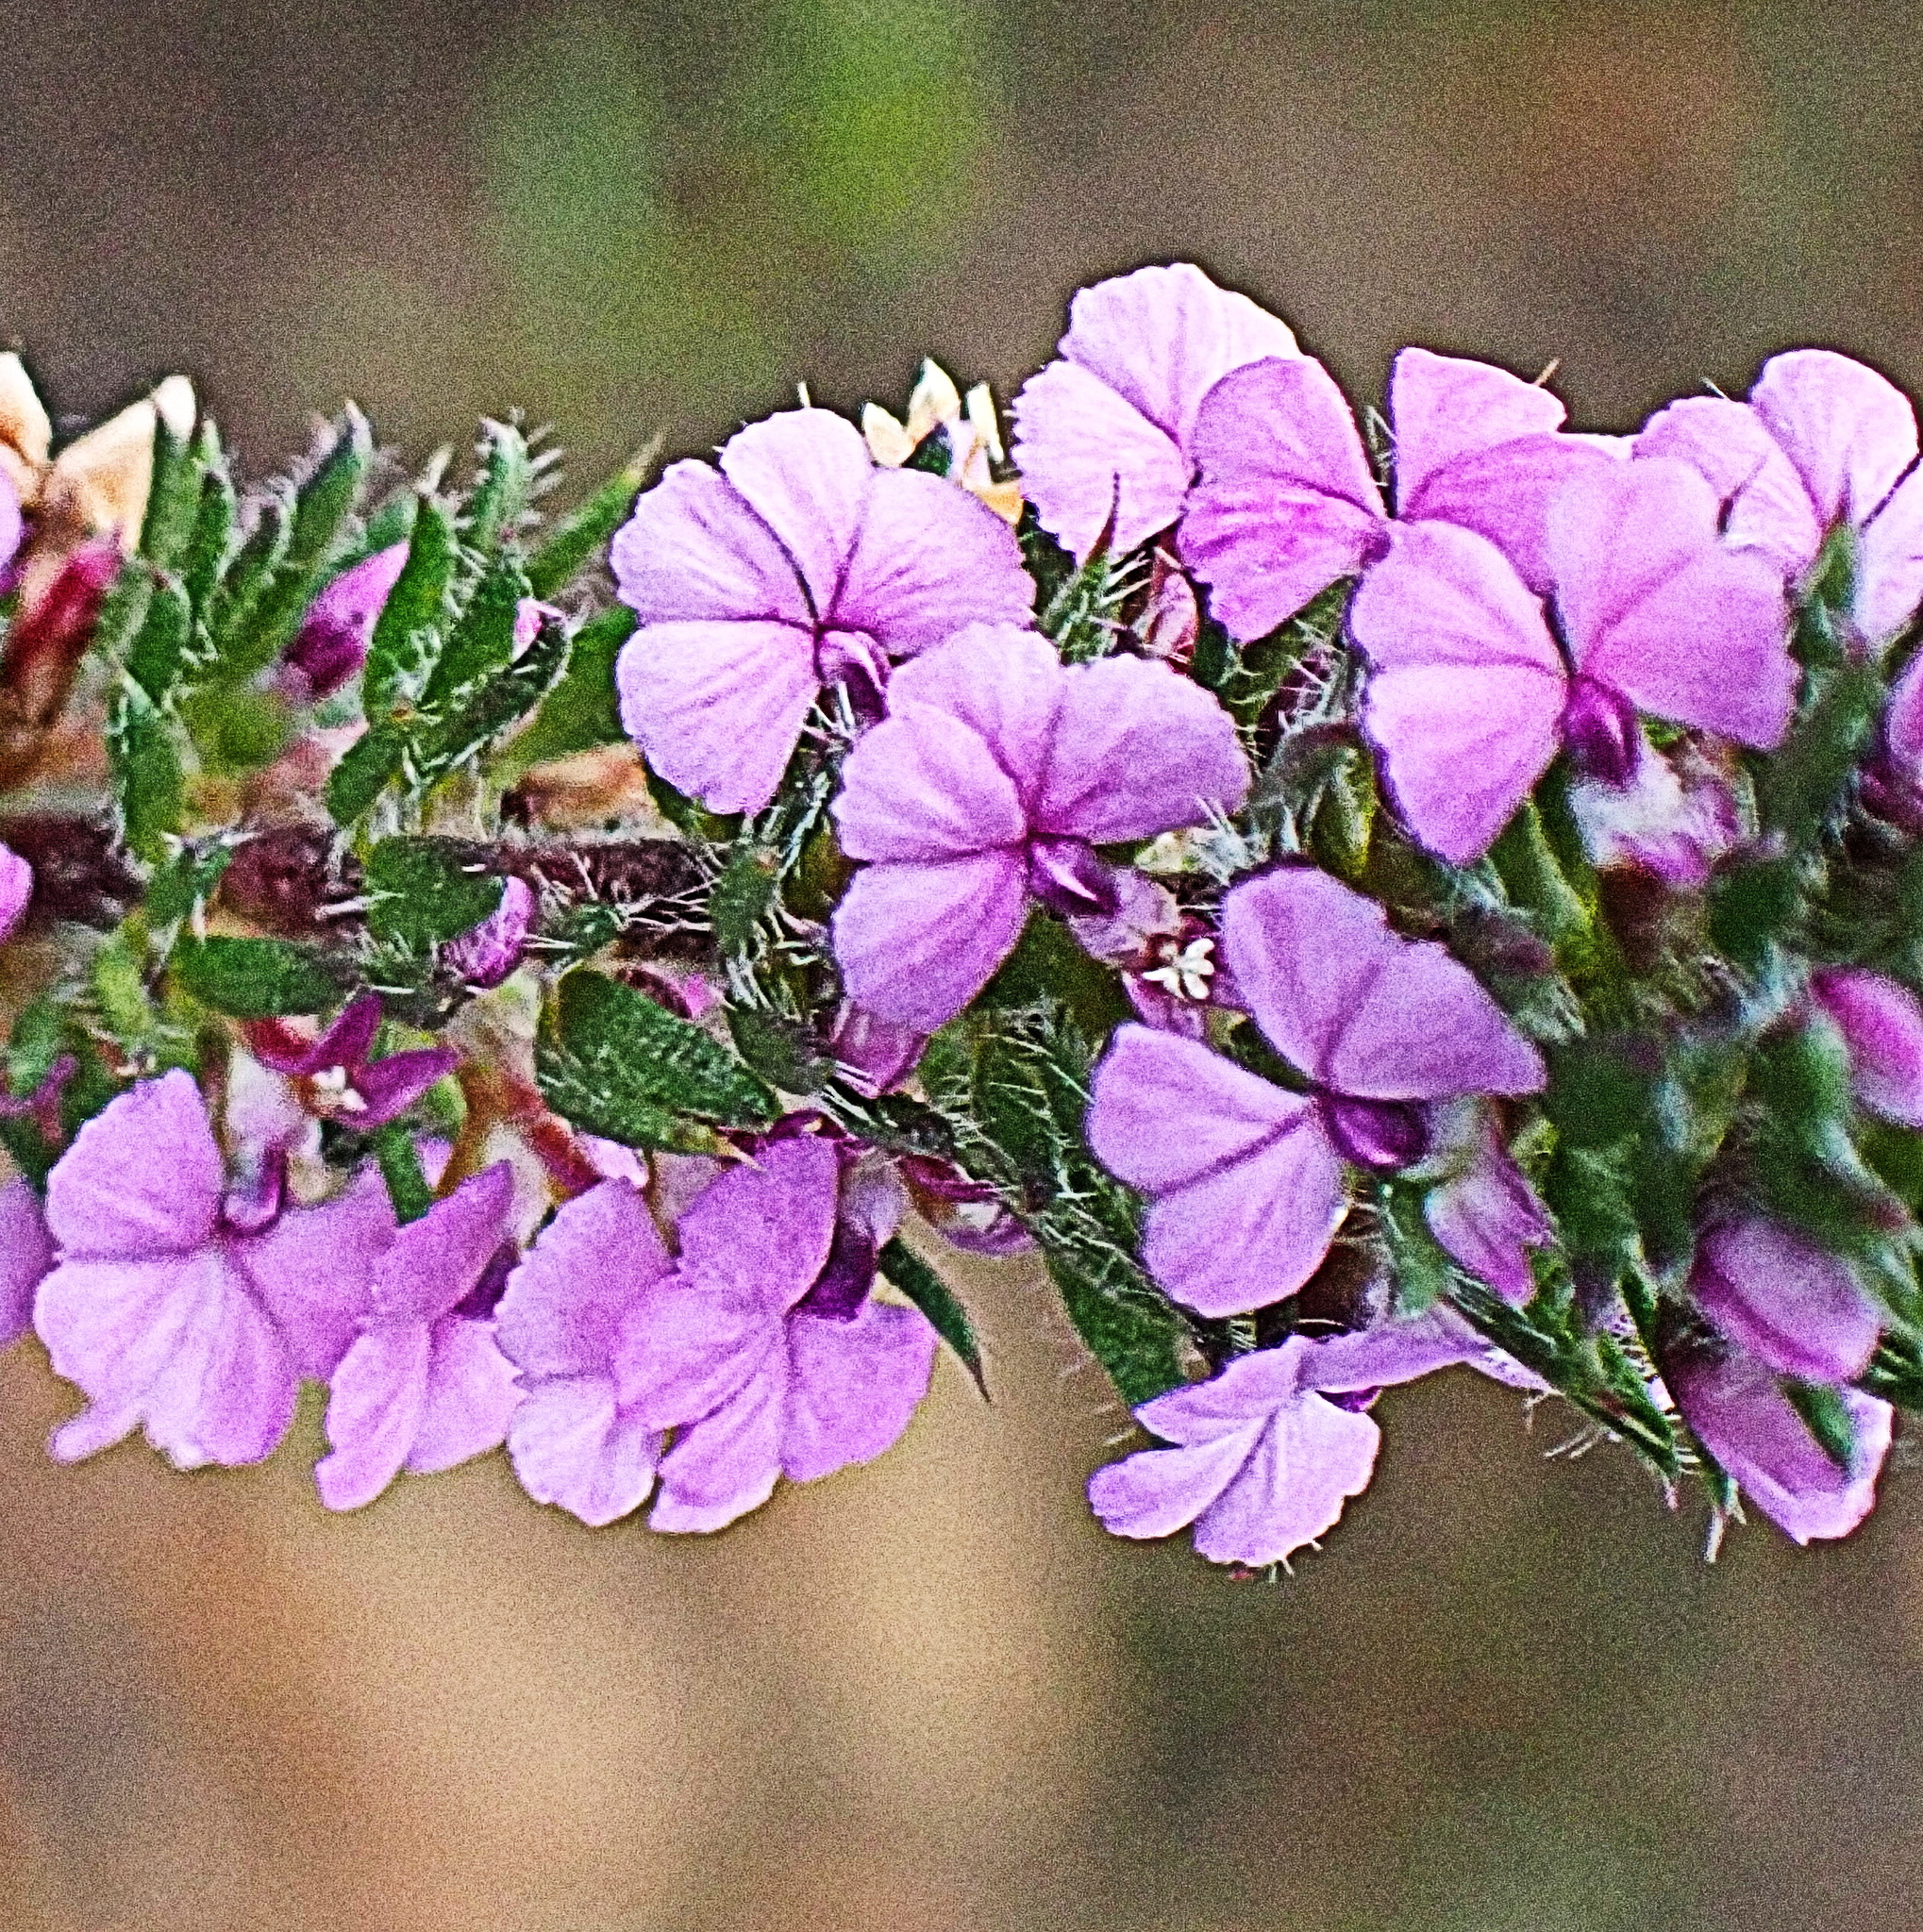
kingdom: Plantae
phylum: Tracheophyta
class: Magnoliopsida
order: Fabales
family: Polygalaceae
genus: Muraltia
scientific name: Muraltia alopecuroides
